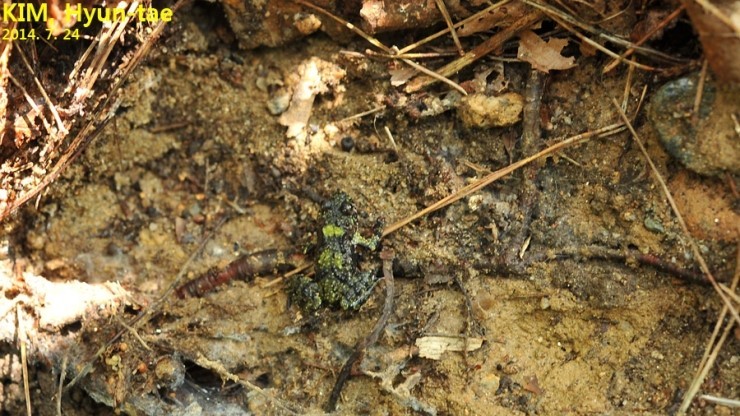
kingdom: Animalia
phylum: Chordata
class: Amphibia
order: Anura
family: Bombinatoridae
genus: Bombina
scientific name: Bombina orientalis
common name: Oriental firebelly toad
